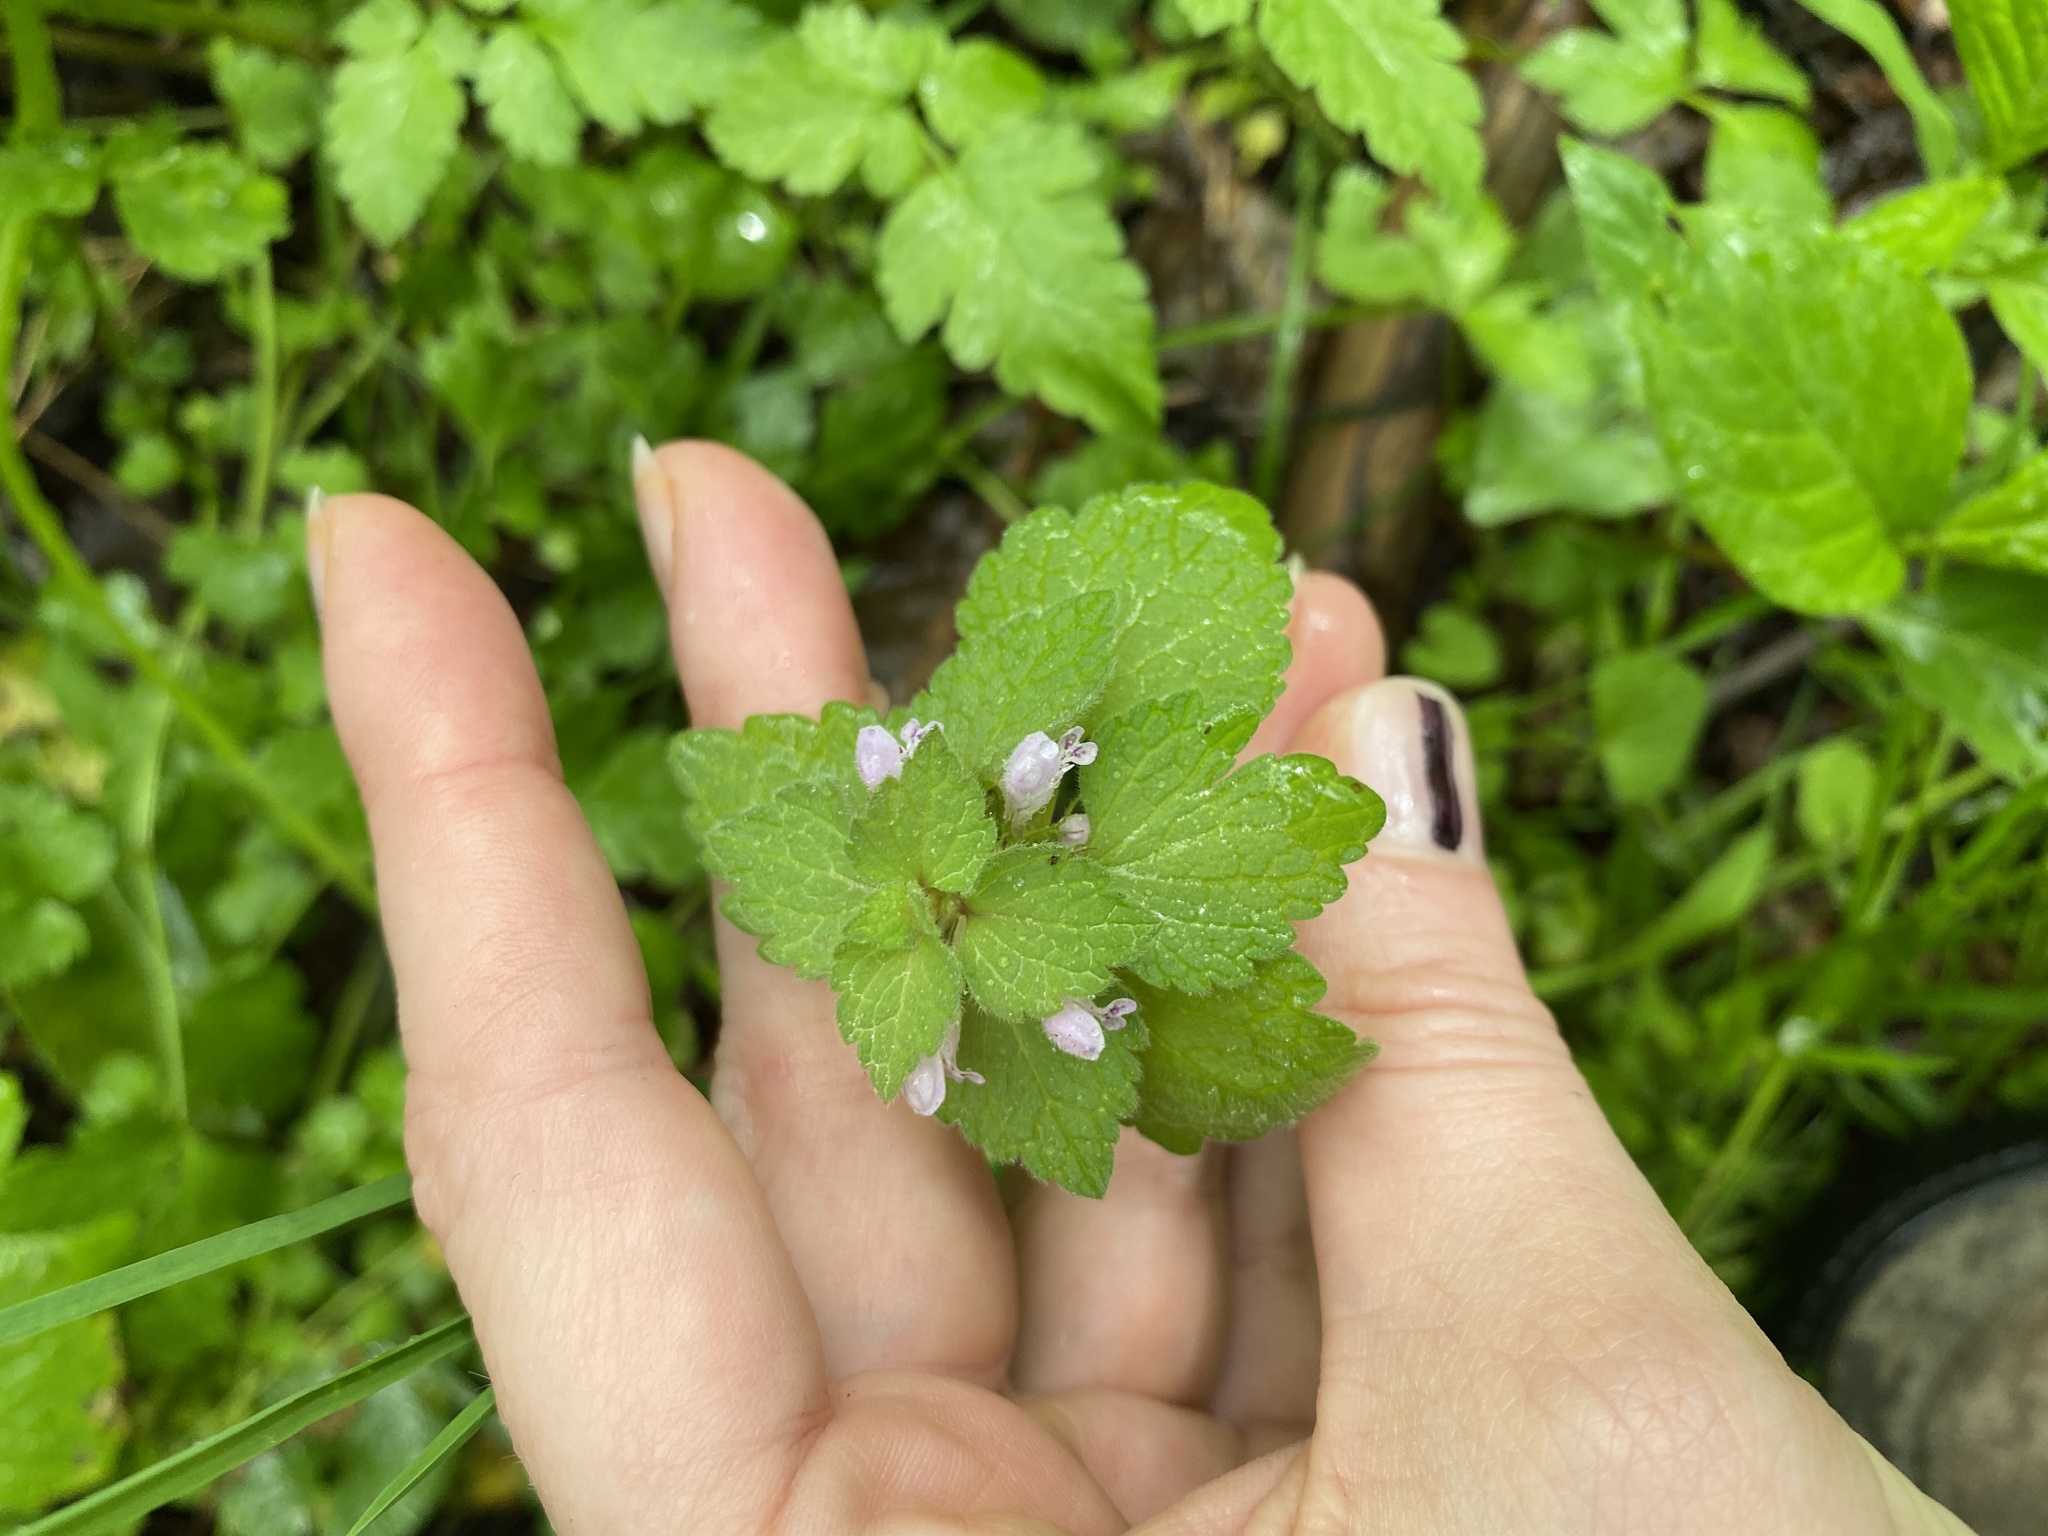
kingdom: Plantae
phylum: Tracheophyta
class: Magnoliopsida
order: Lamiales
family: Lamiaceae
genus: Lamium
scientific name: Lamium purpureum
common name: Red dead-nettle
